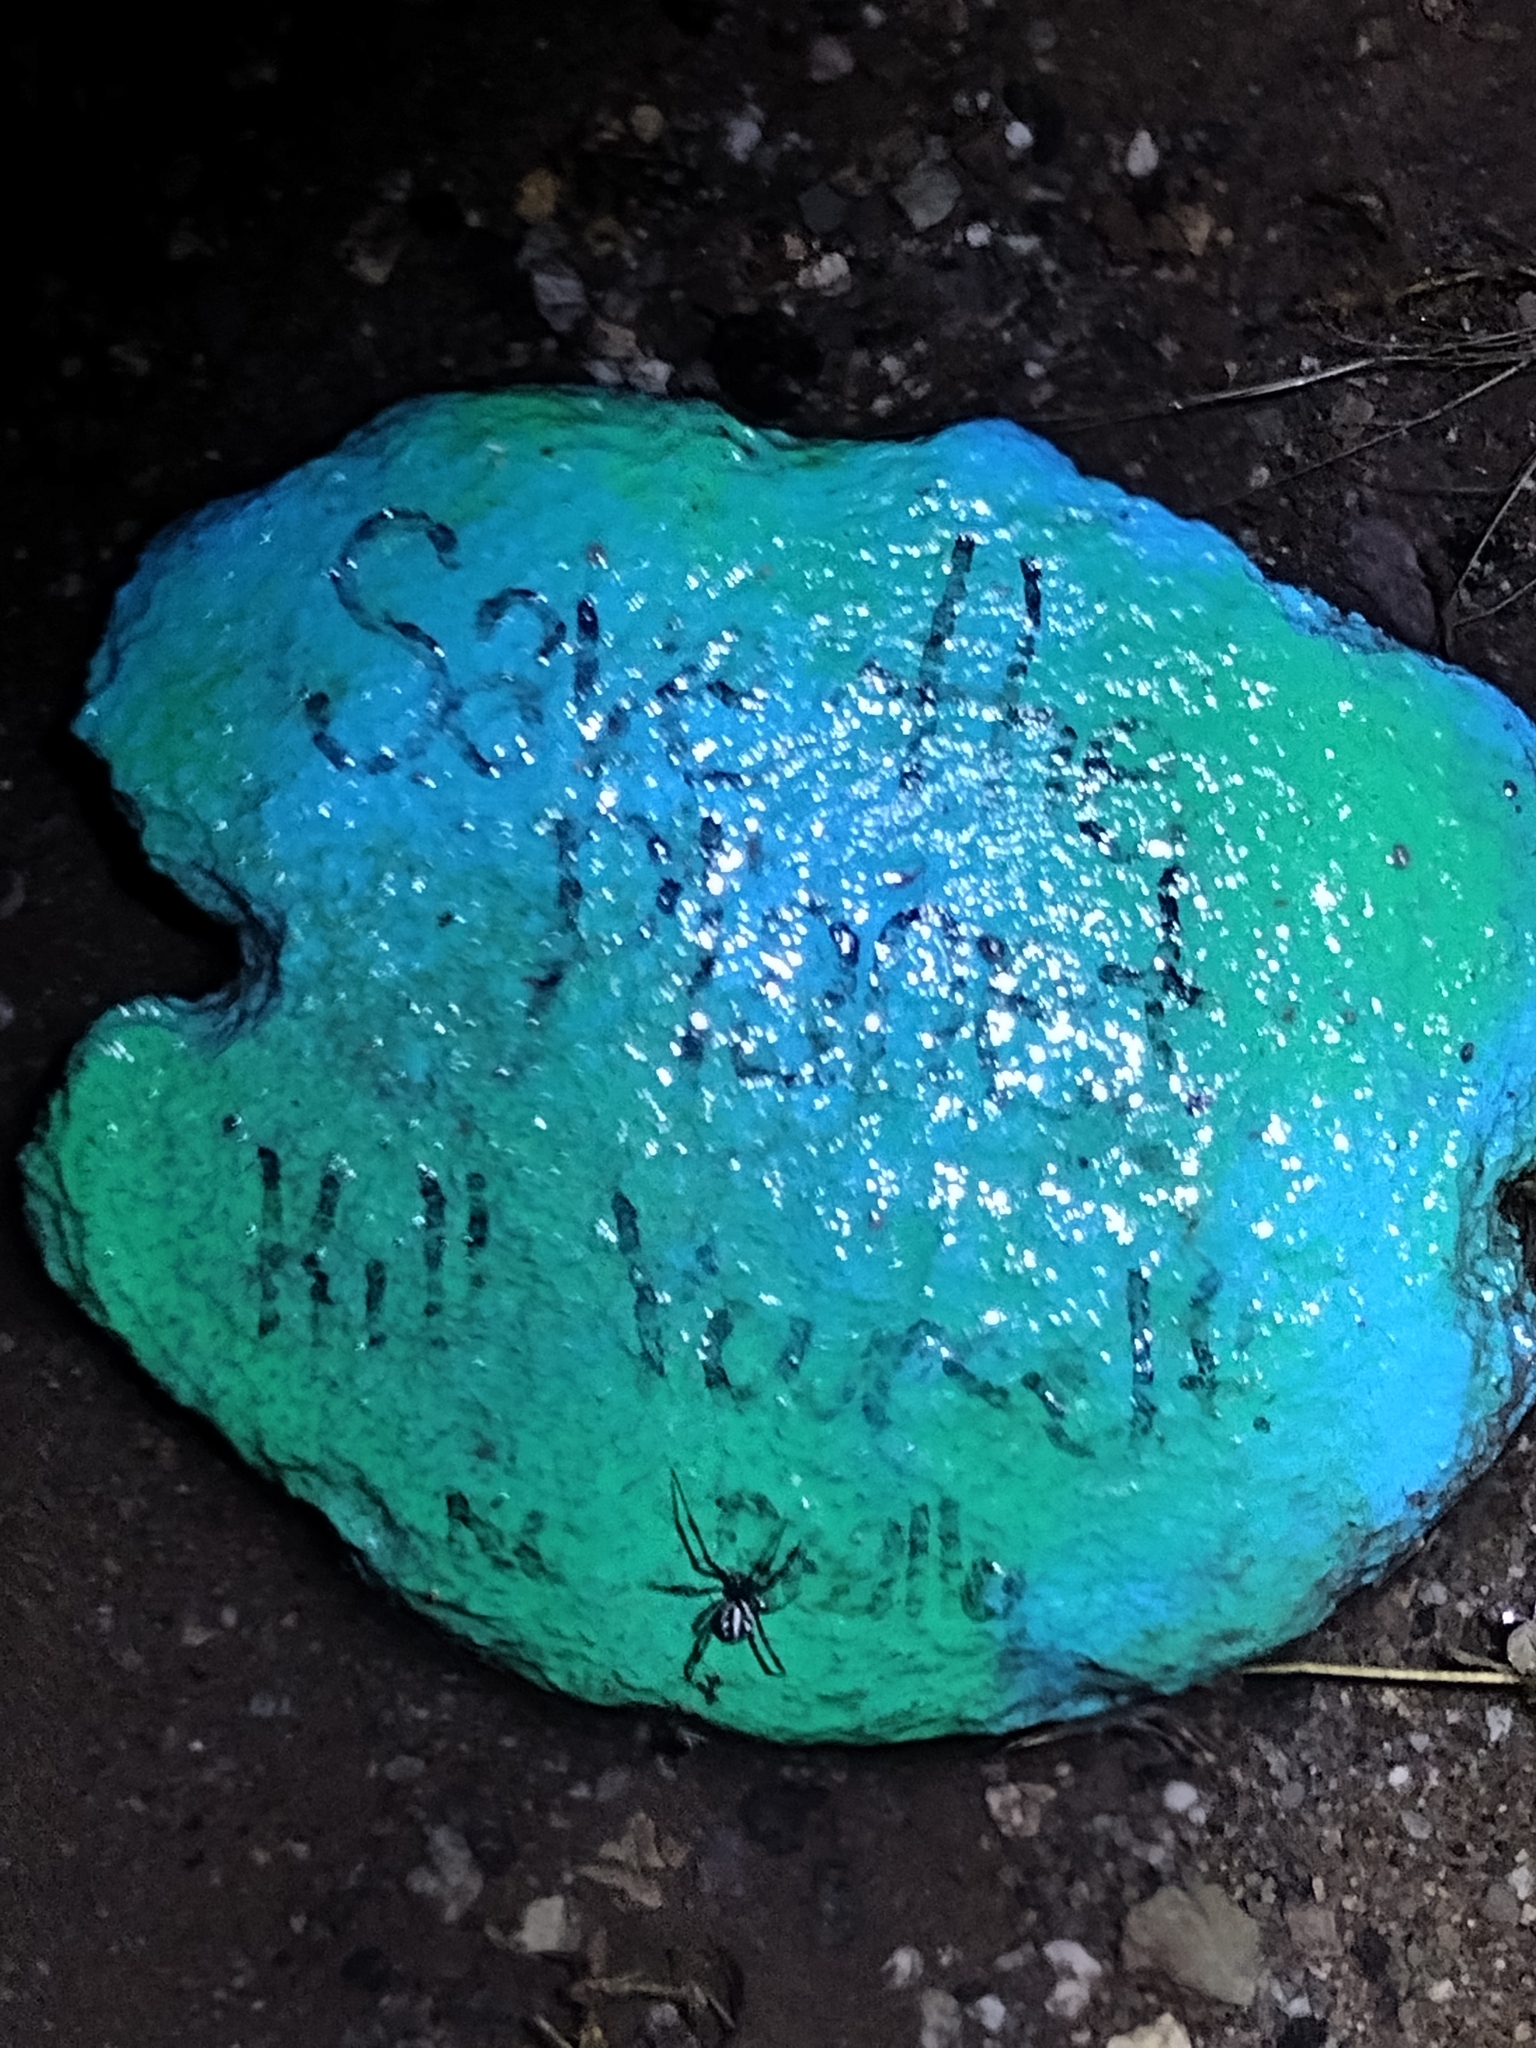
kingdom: Animalia
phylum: Arthropoda
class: Arachnida
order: Araneae
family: Theridiidae
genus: Latrodectus
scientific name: Latrodectus hesperus
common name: Western black widow
